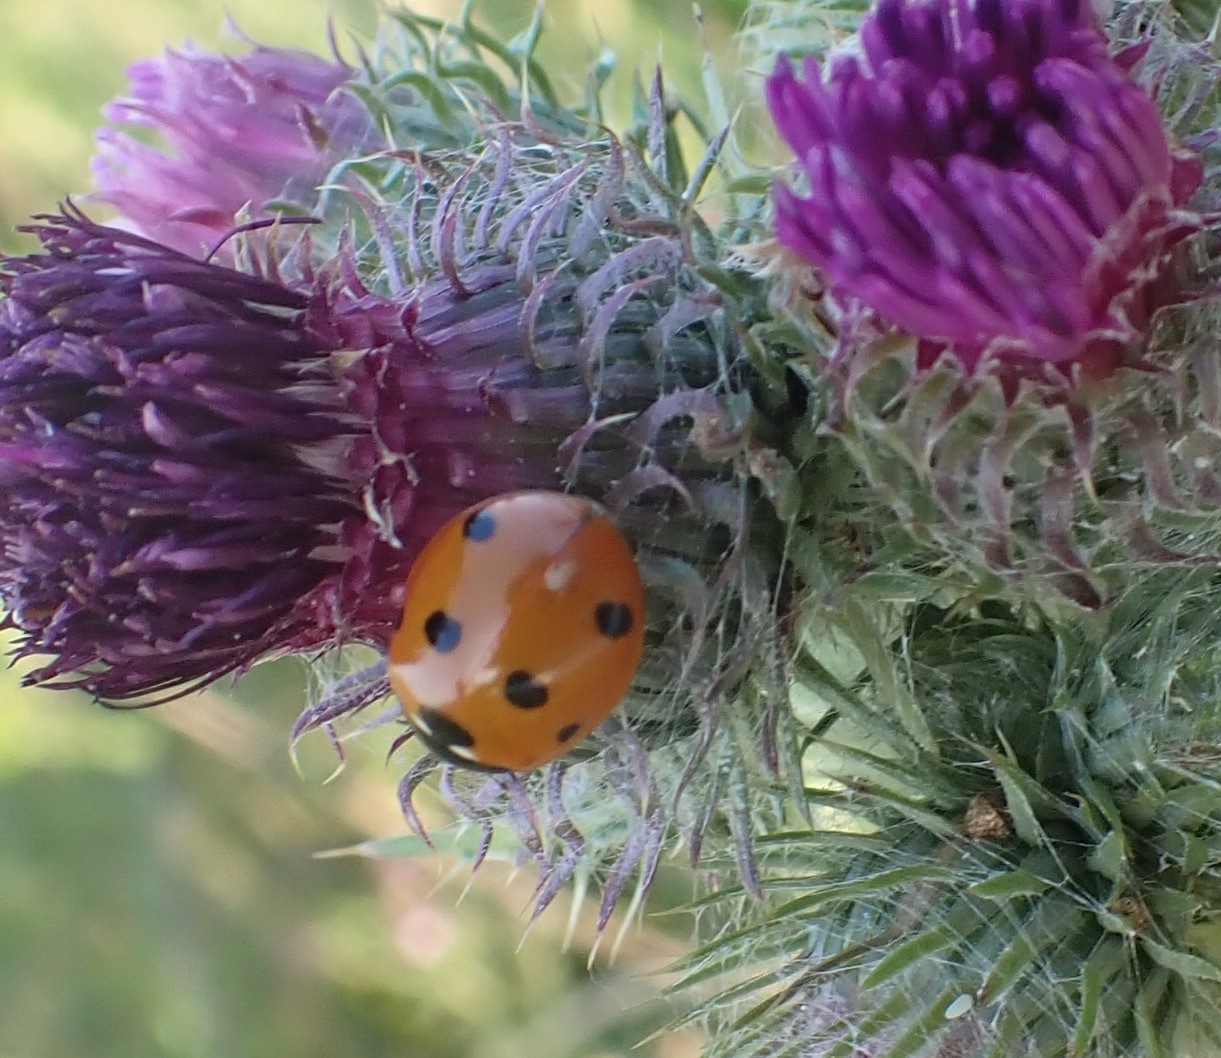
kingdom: Animalia
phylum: Arthropoda
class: Insecta
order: Coleoptera
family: Coccinellidae
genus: Coccinella
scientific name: Coccinella septempunctata
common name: Sevenspotted lady beetle
